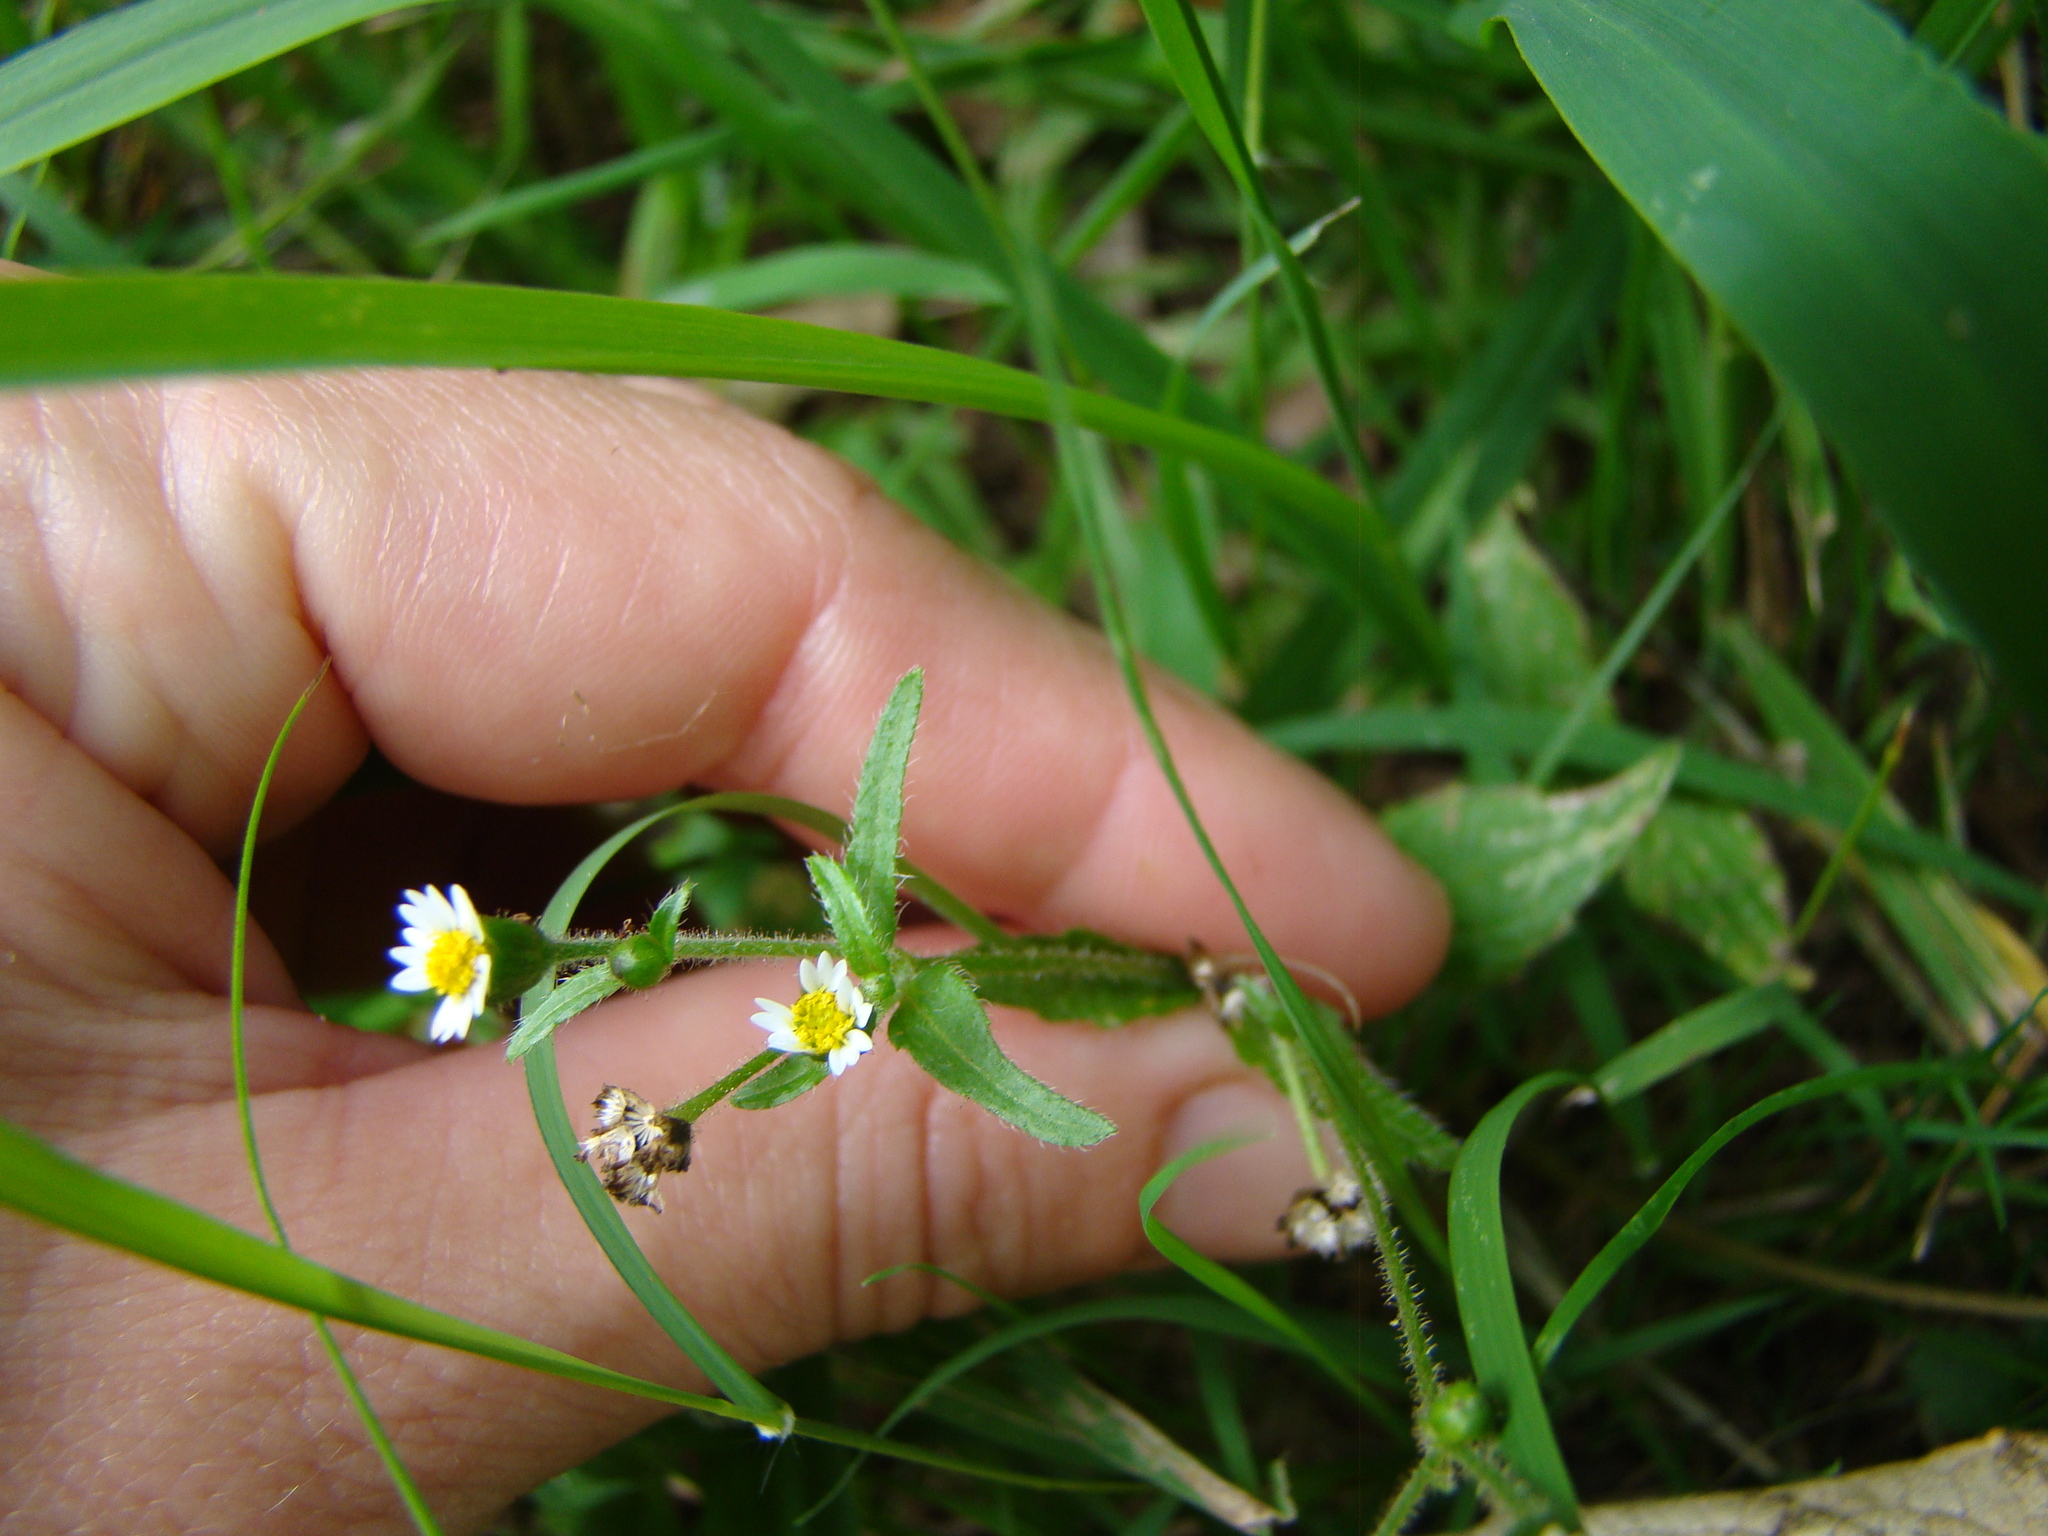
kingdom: Plantae
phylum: Tracheophyta
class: Magnoliopsida
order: Asterales
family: Asteraceae
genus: Galinsoga
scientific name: Galinsoga quadriradiata
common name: Shaggy soldier
